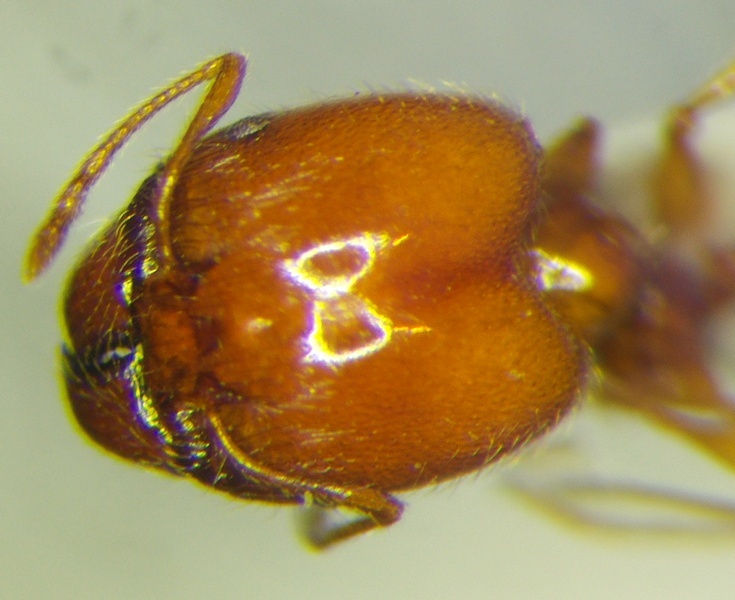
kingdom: Animalia
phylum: Arthropoda
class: Insecta
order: Hymenoptera
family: Formicidae
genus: Pheidole
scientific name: Pheidole pallidula
